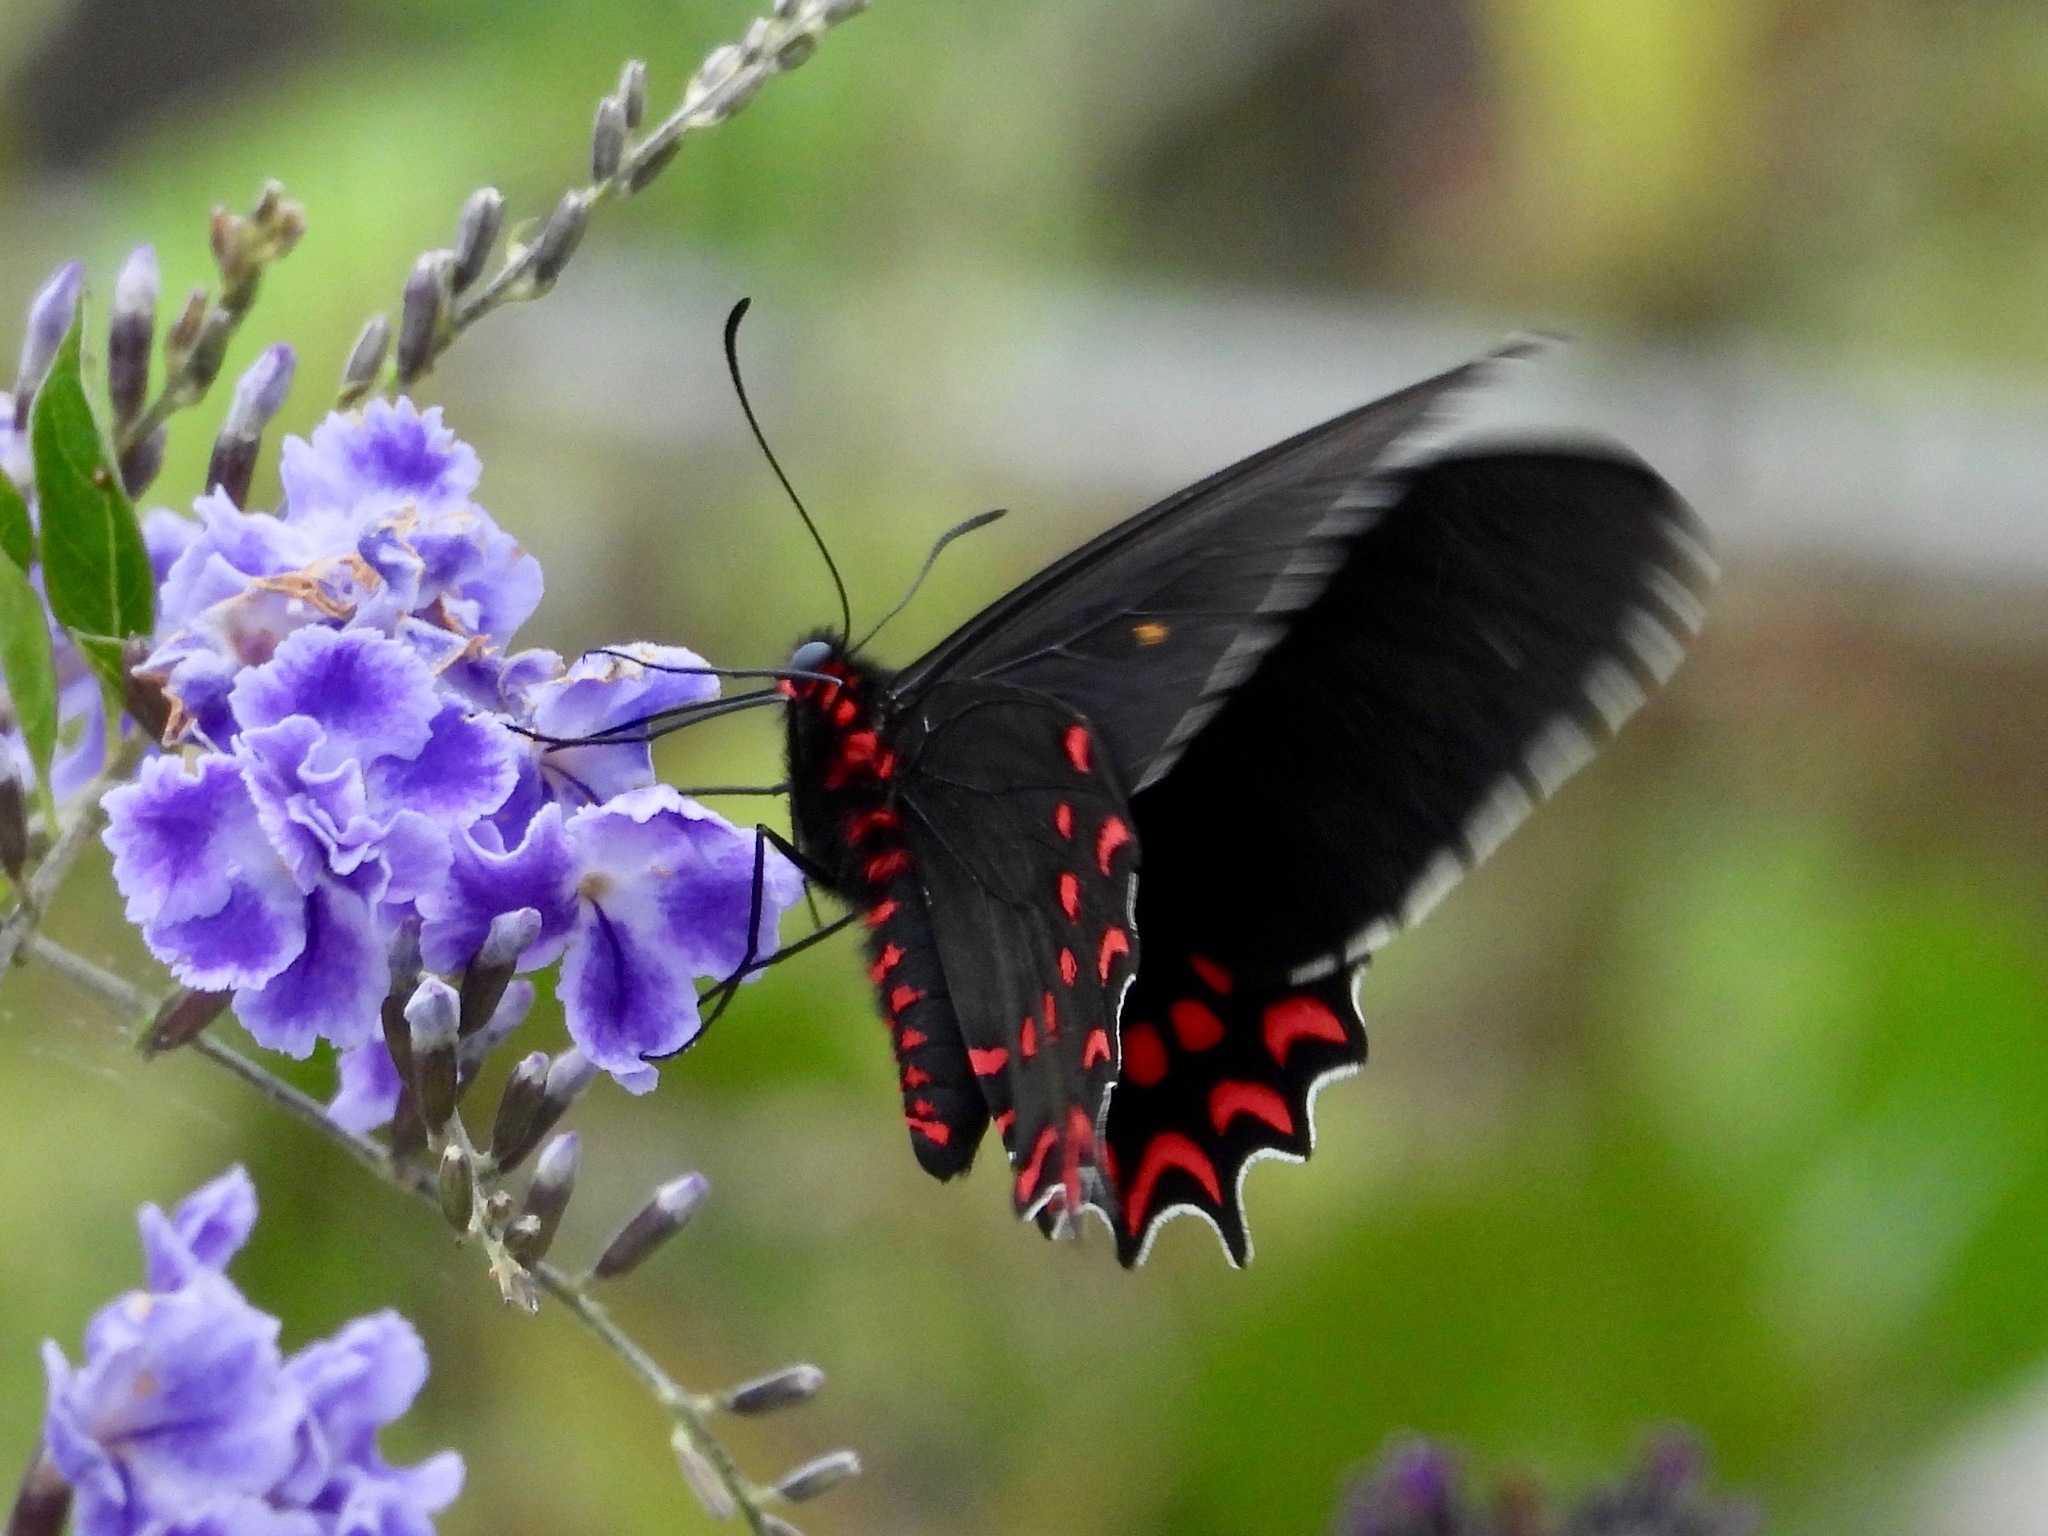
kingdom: Animalia
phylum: Arthropoda
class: Insecta
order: Lepidoptera
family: Papilionidae
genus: Parides
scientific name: Parides photinus
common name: Pink-spotted cattleheart
